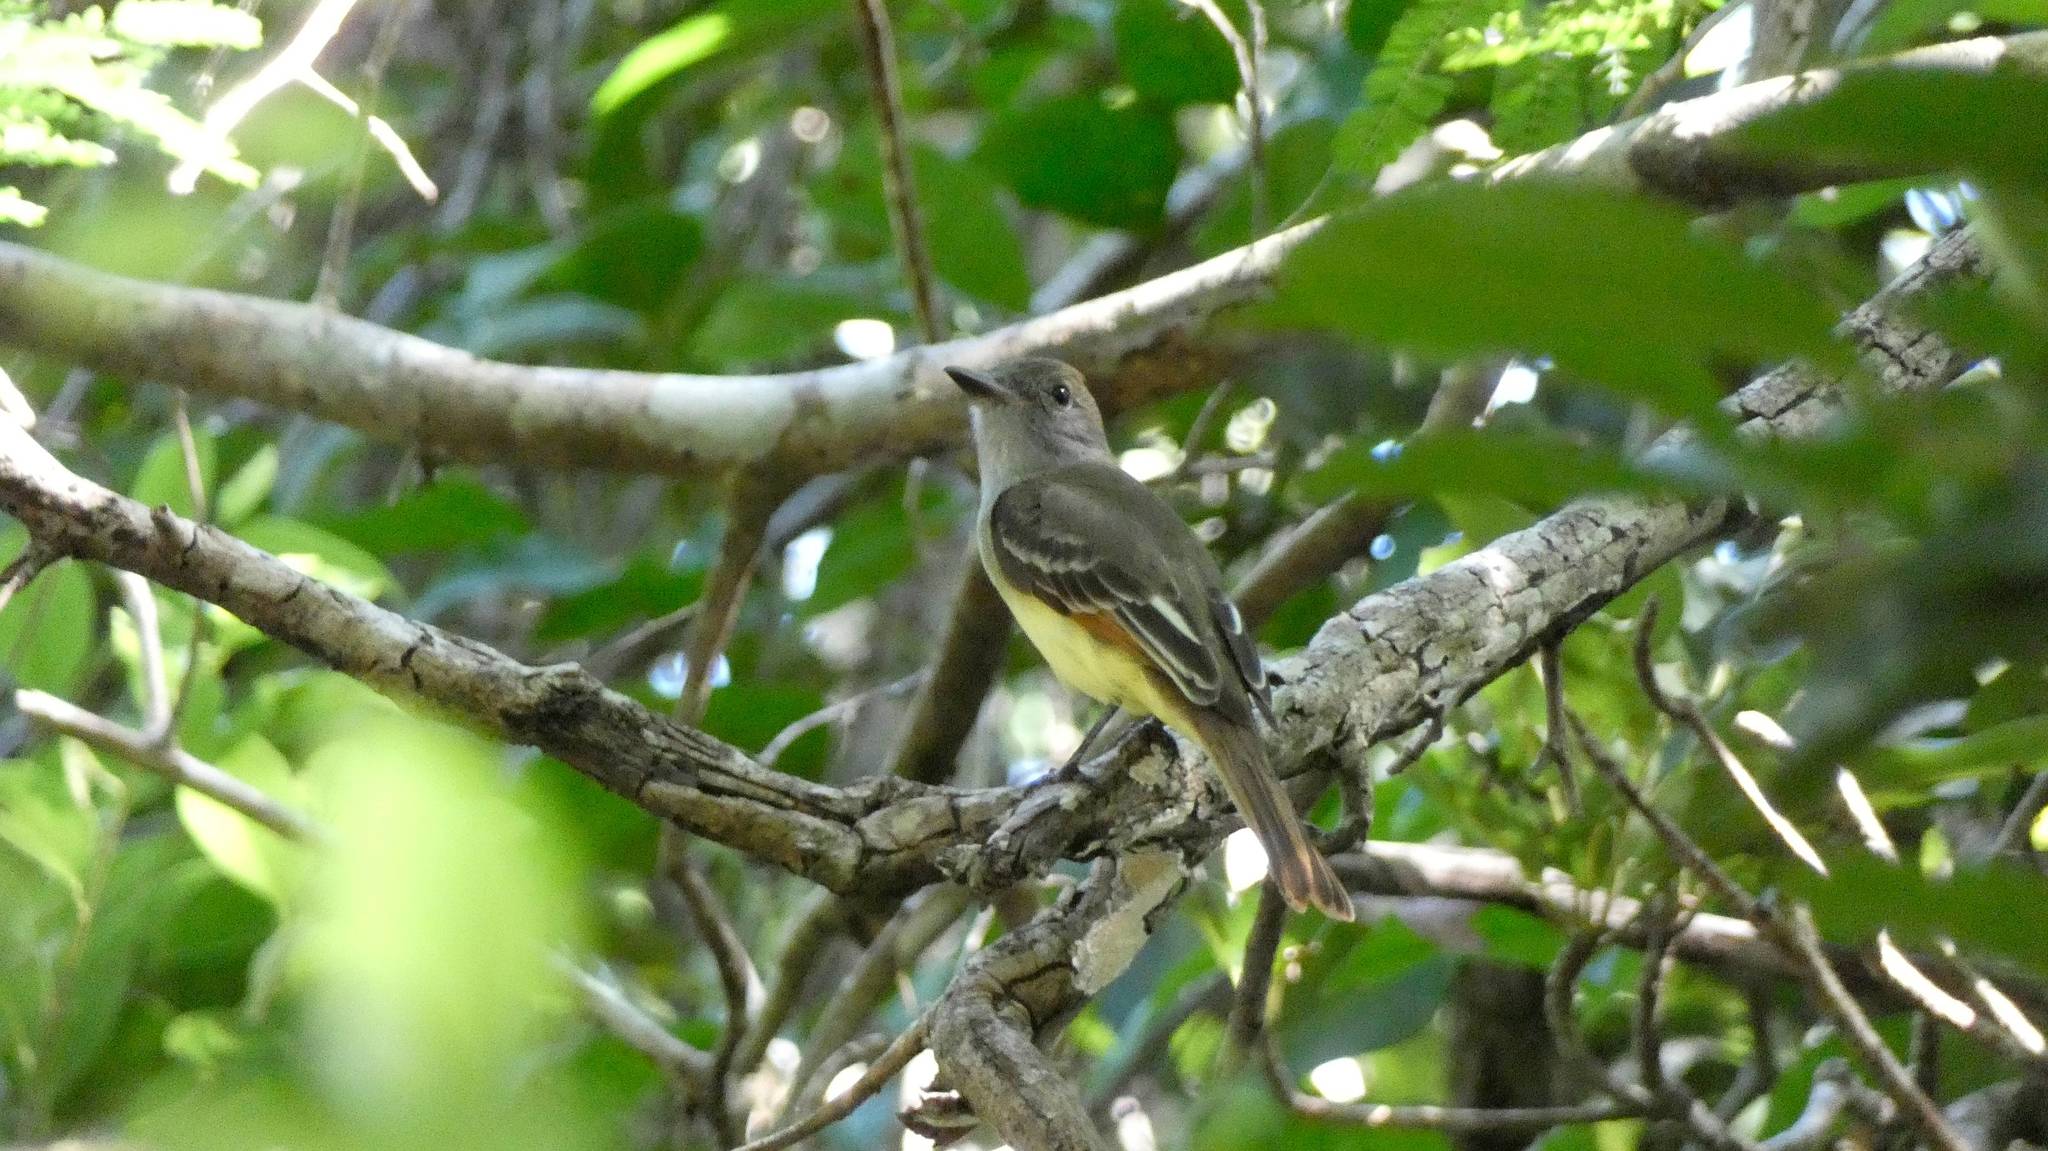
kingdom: Animalia
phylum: Chordata
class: Aves
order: Passeriformes
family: Tyrannidae
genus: Myiarchus
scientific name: Myiarchus crinitus
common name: Great crested flycatcher
